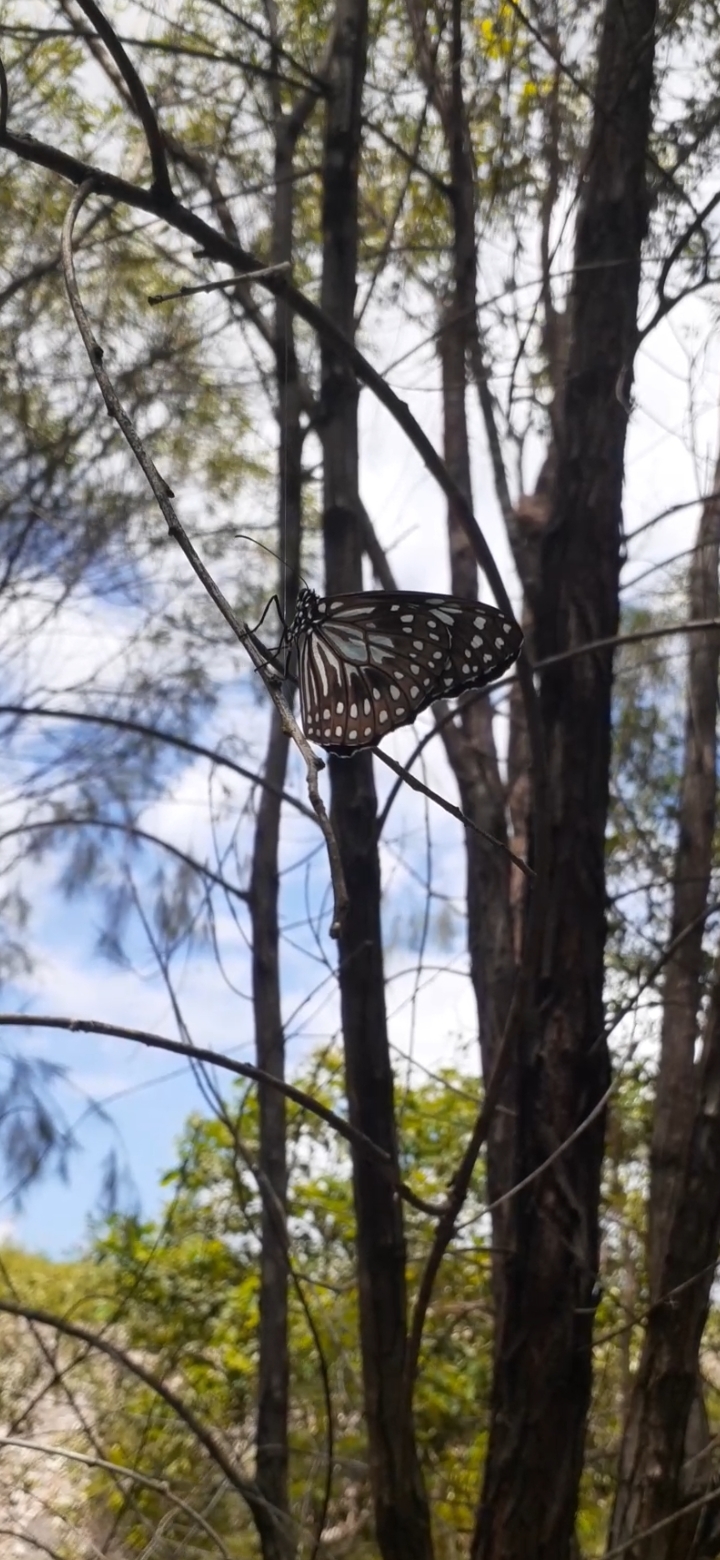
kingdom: Animalia
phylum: Arthropoda
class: Insecta
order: Lepidoptera
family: Nymphalidae
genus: Tirumala
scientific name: Tirumala hamata
